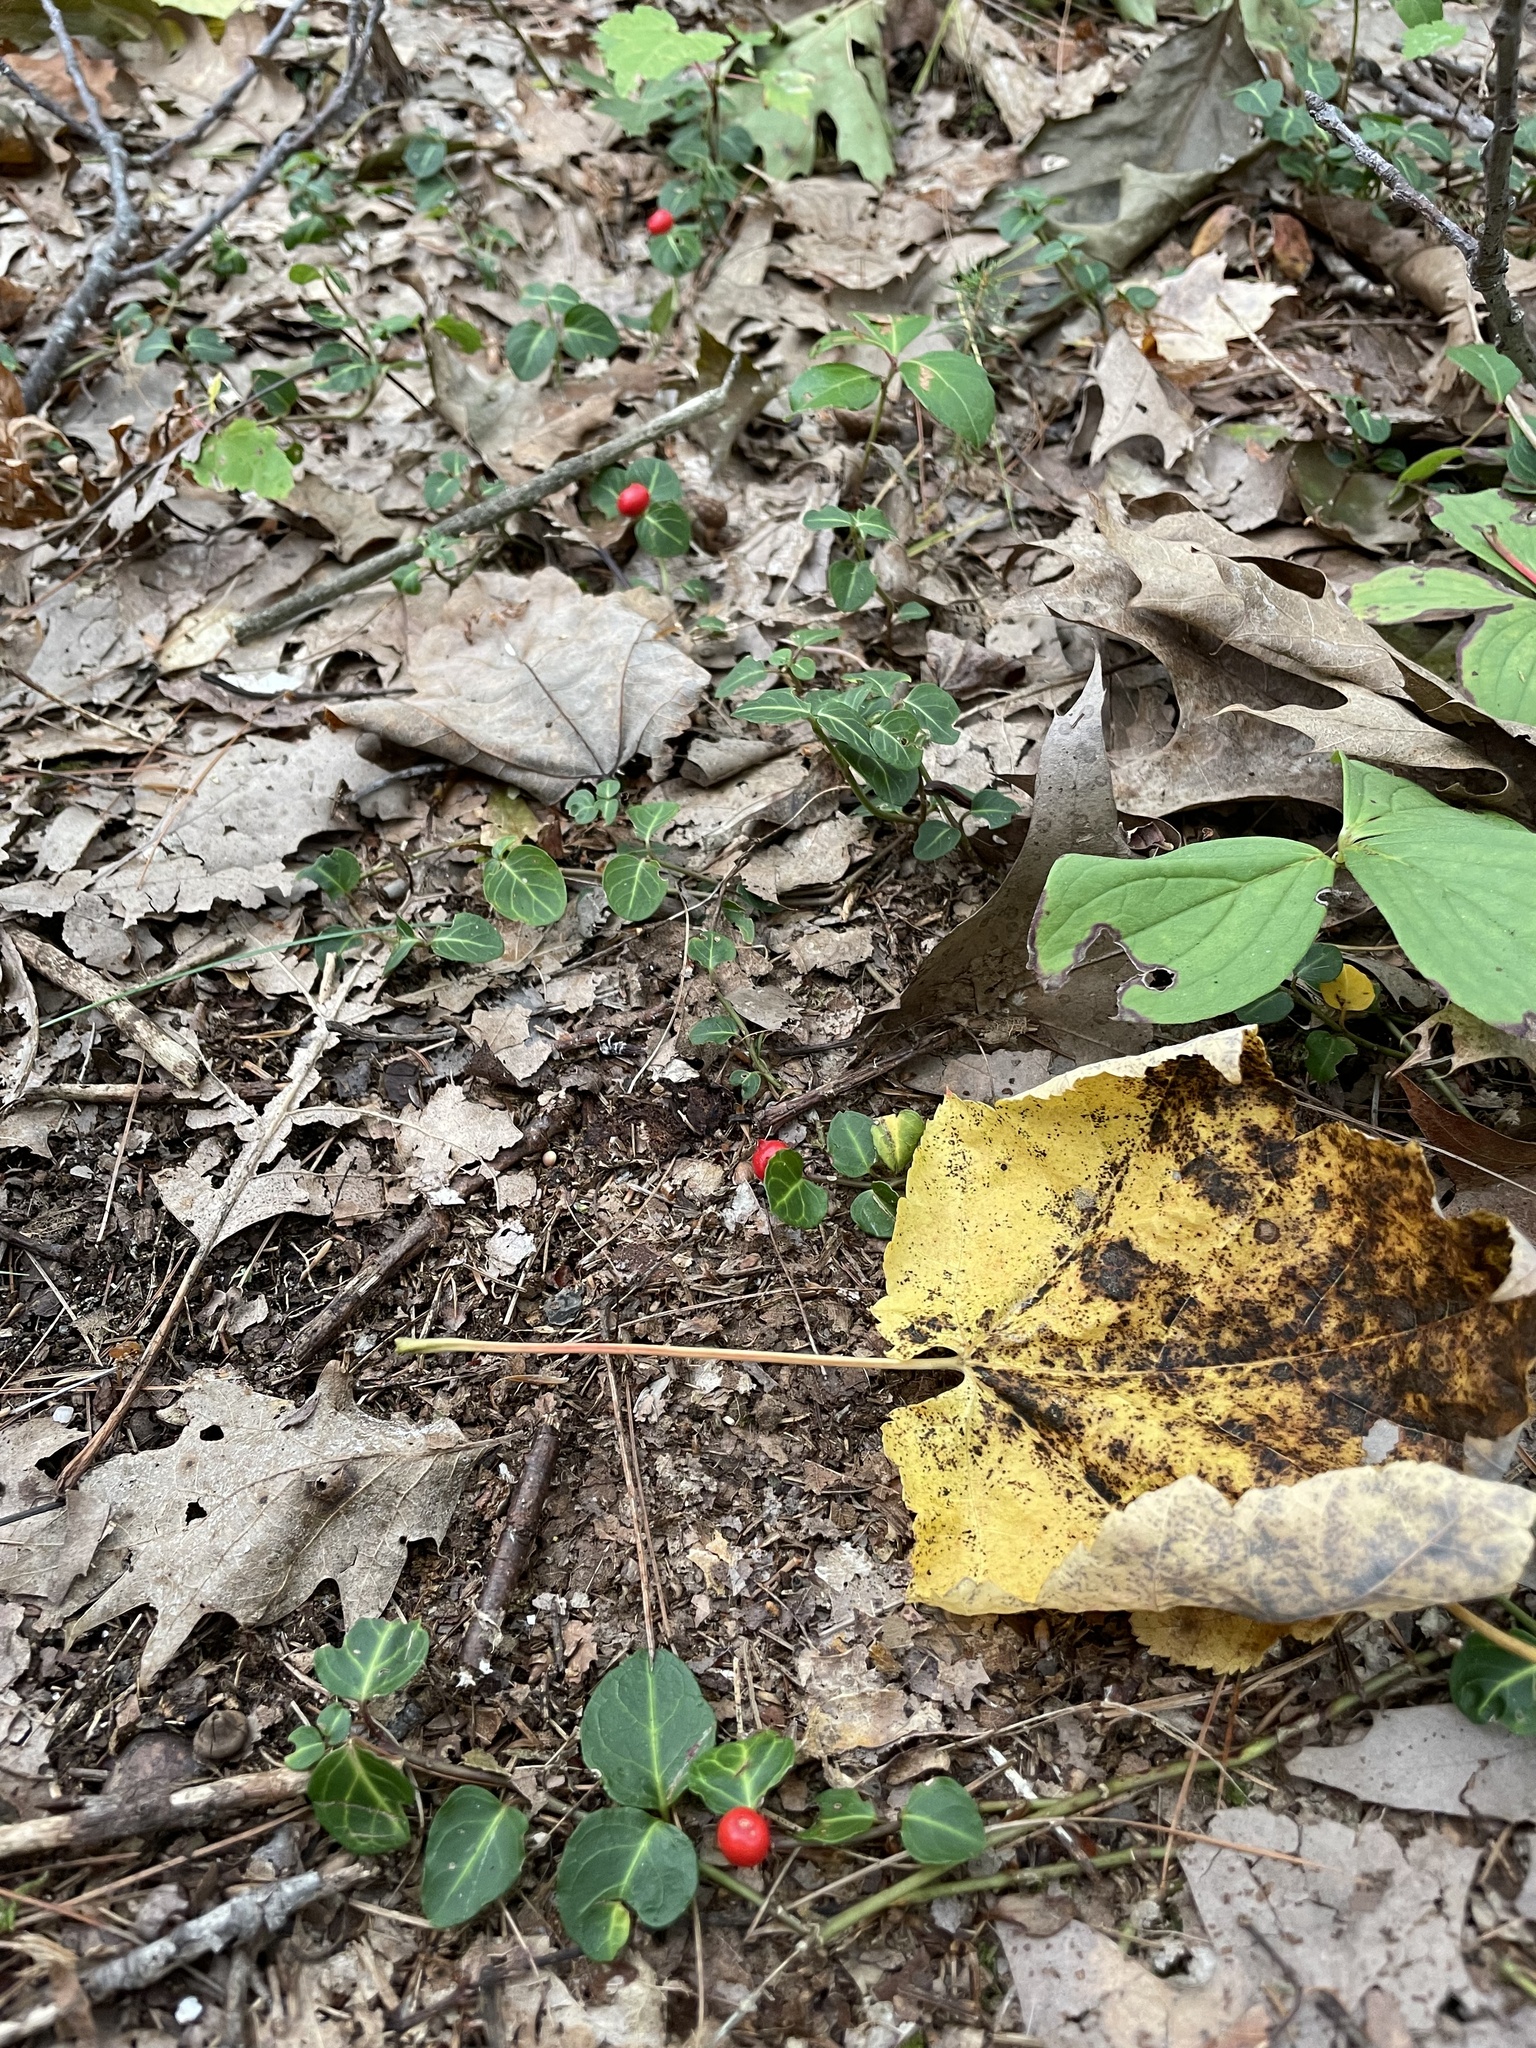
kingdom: Plantae
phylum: Tracheophyta
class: Magnoliopsida
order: Gentianales
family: Rubiaceae
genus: Mitchella
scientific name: Mitchella repens
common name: Partridge-berry
